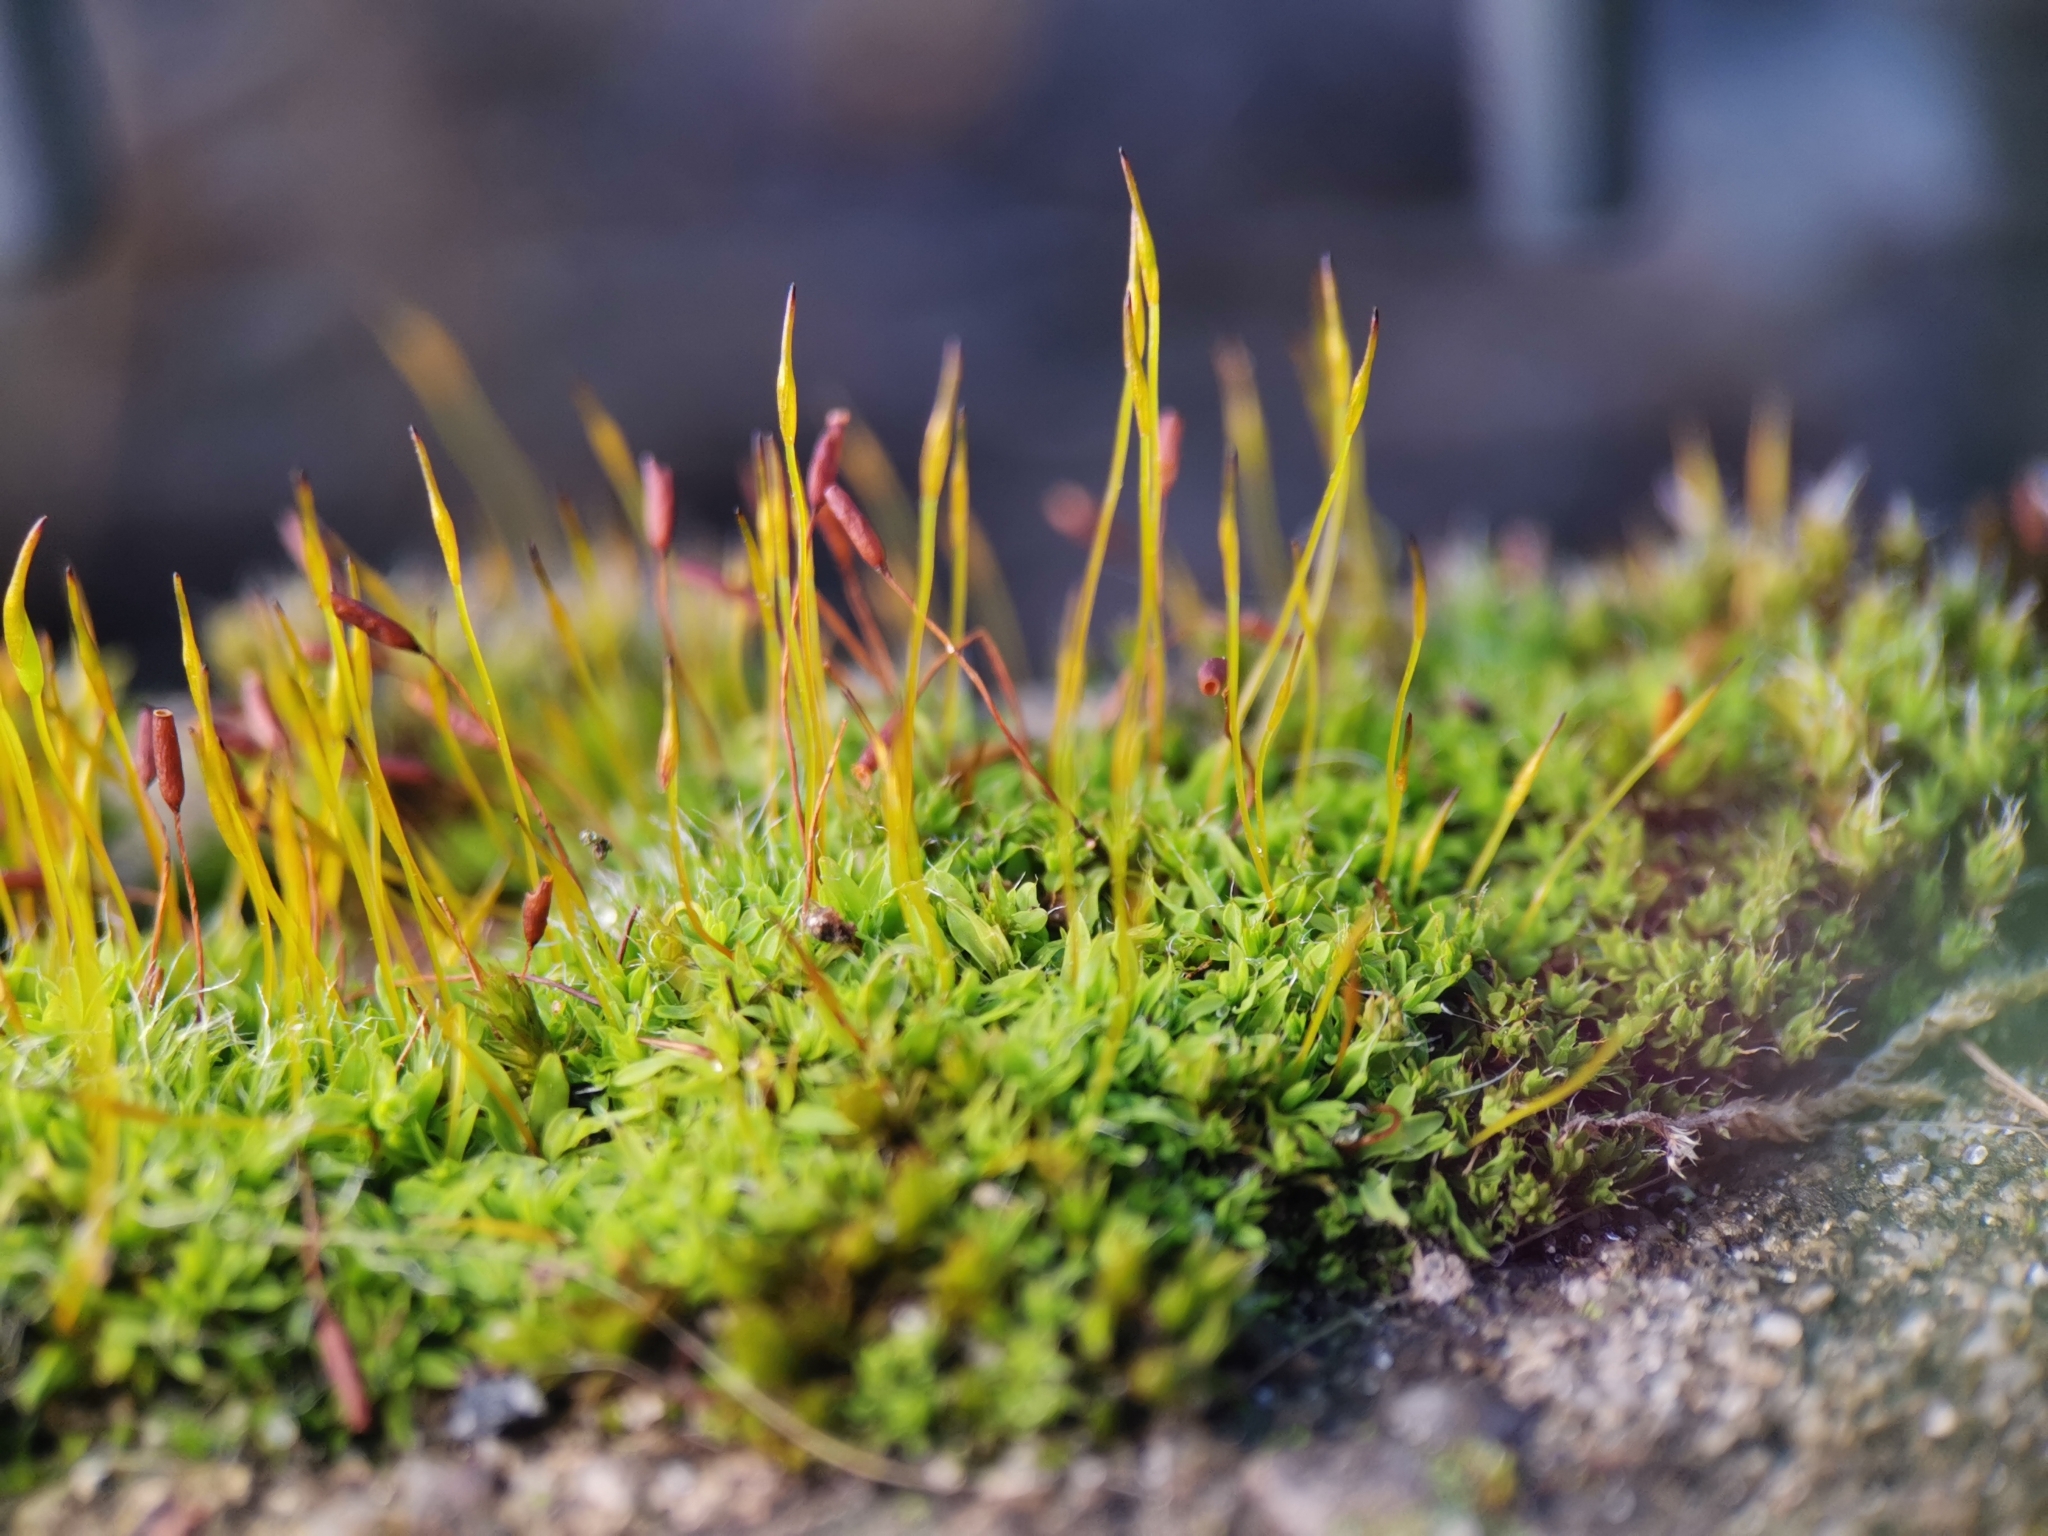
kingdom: Plantae
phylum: Bryophyta
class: Bryopsida
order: Pottiales
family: Pottiaceae
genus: Tortula
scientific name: Tortula muralis
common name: Wall screw-moss
